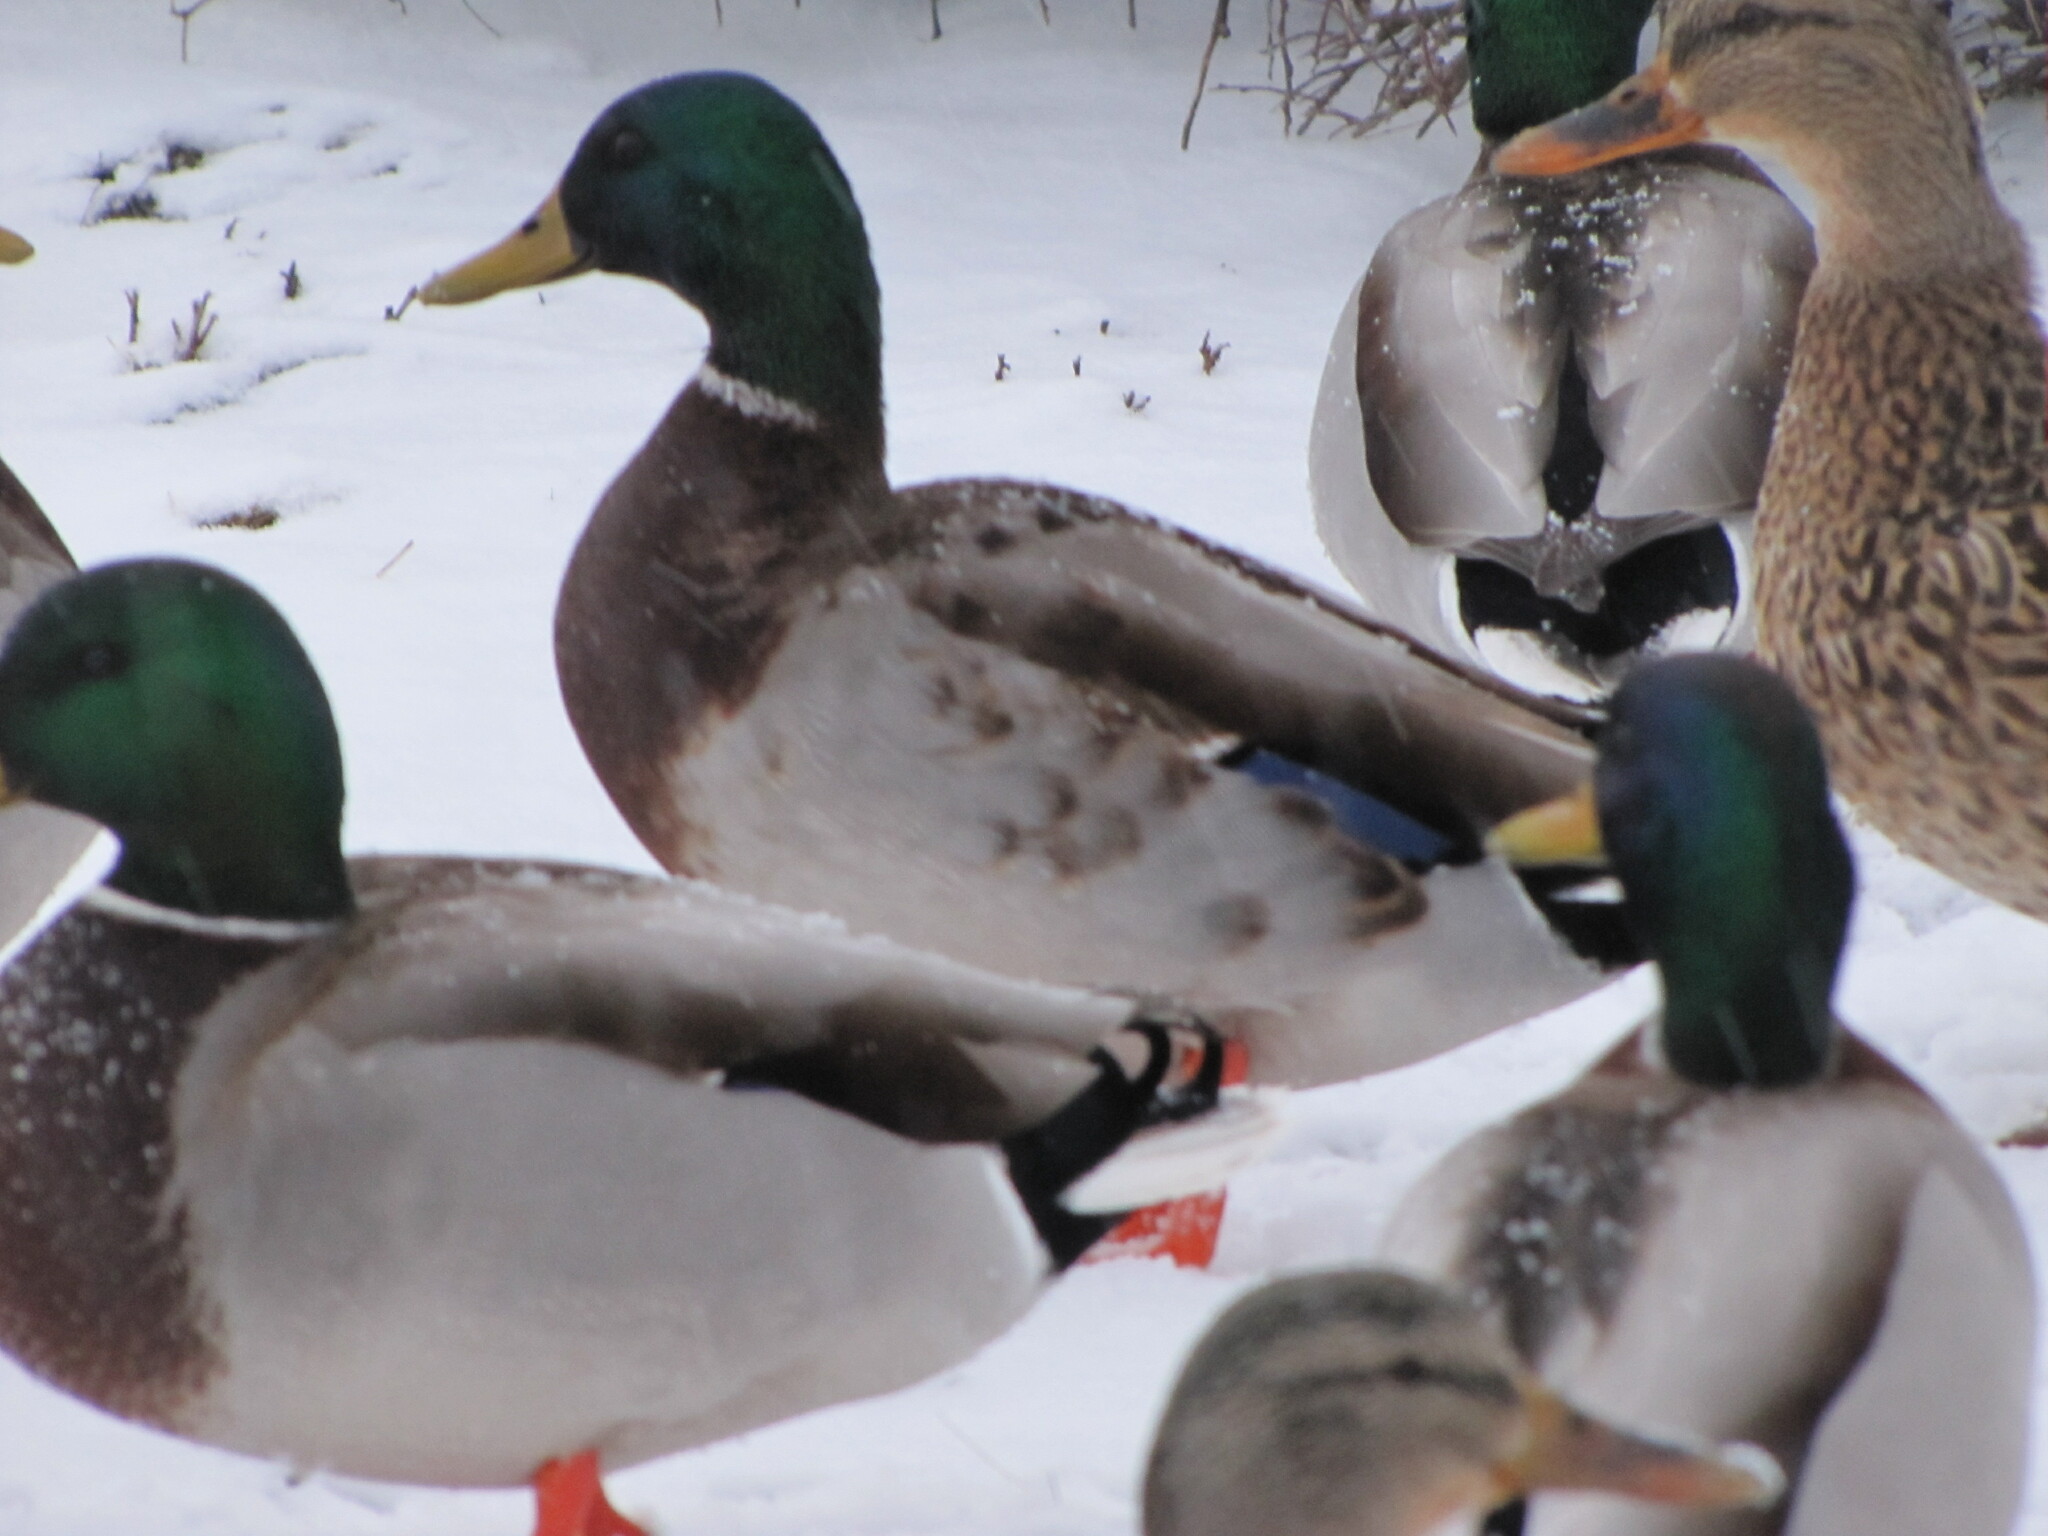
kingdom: Animalia
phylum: Chordata
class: Aves
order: Anseriformes
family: Anatidae
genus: Anas
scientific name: Anas platyrhynchos
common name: Mallard
